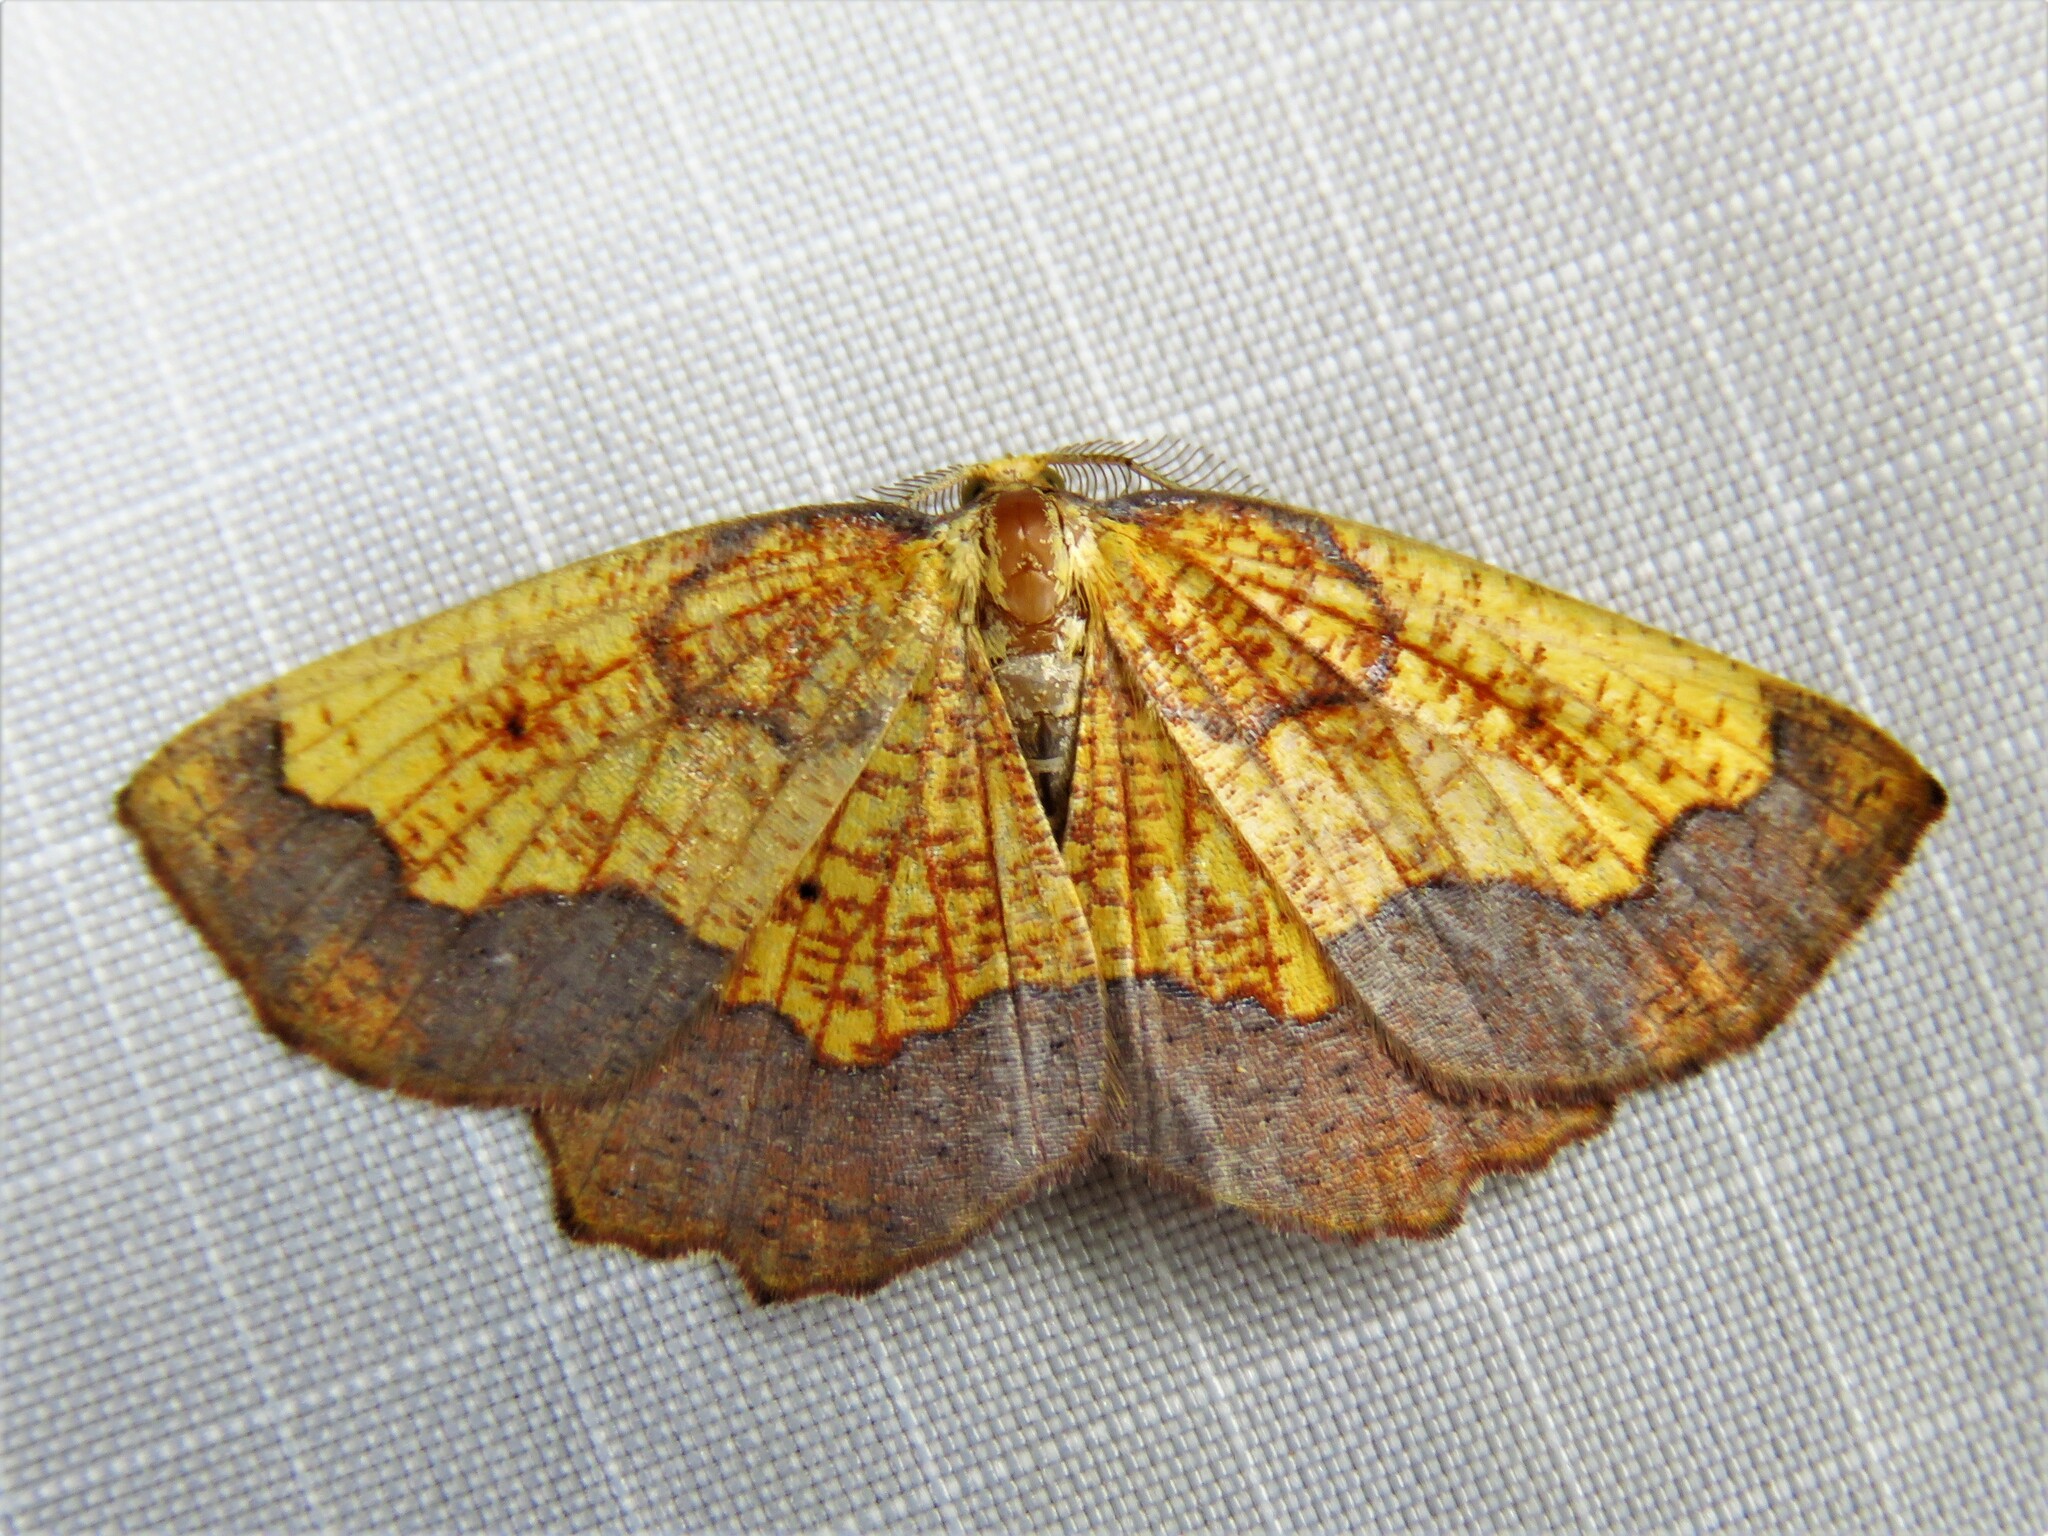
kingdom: Animalia
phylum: Arthropoda
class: Insecta
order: Lepidoptera
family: Geometridae
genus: Epione
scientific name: Epione vespertaria
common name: Dark bordered beauty
